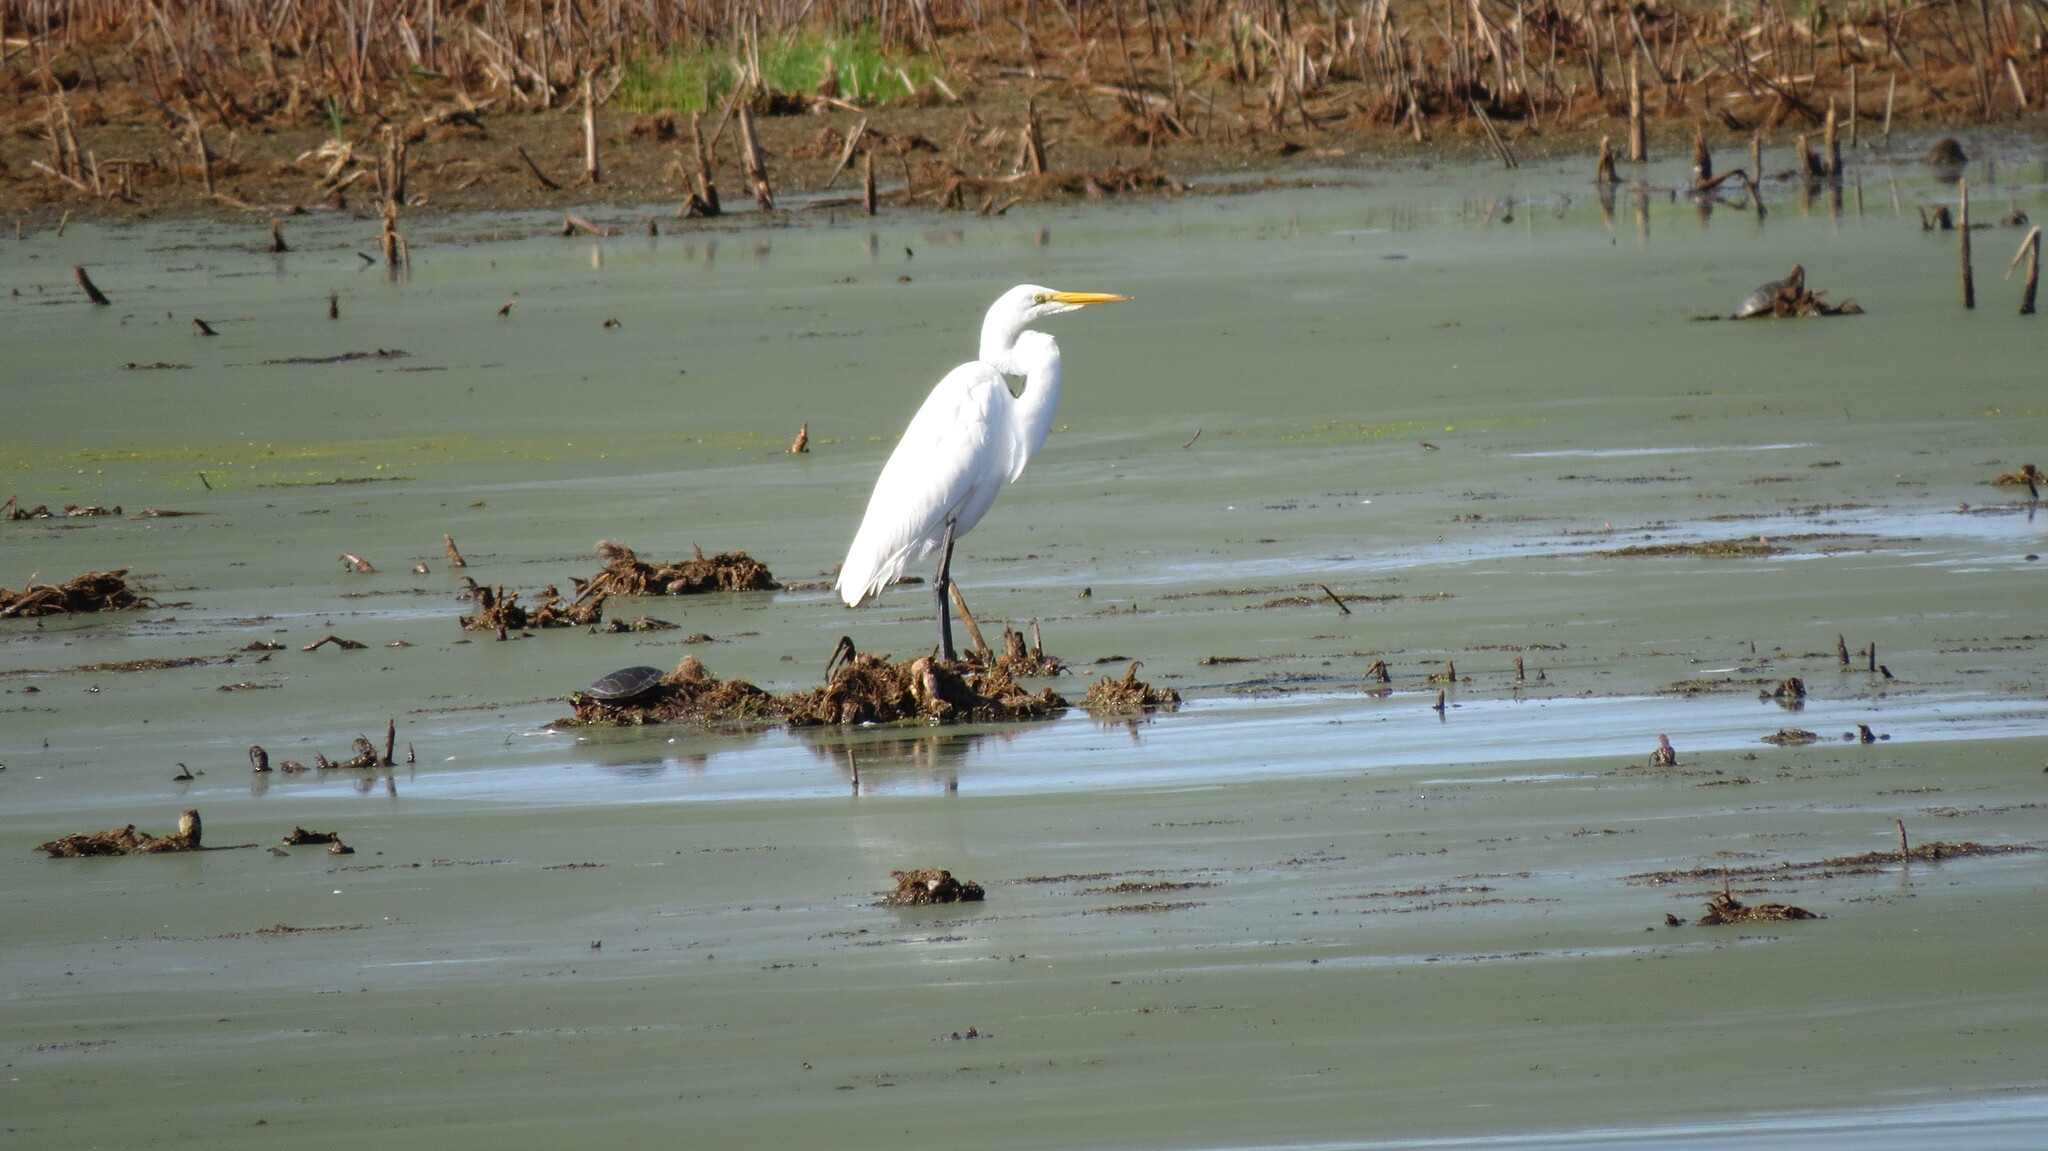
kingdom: Animalia
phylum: Chordata
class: Aves
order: Pelecaniformes
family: Ardeidae
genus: Ardea
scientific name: Ardea alba
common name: Great egret
